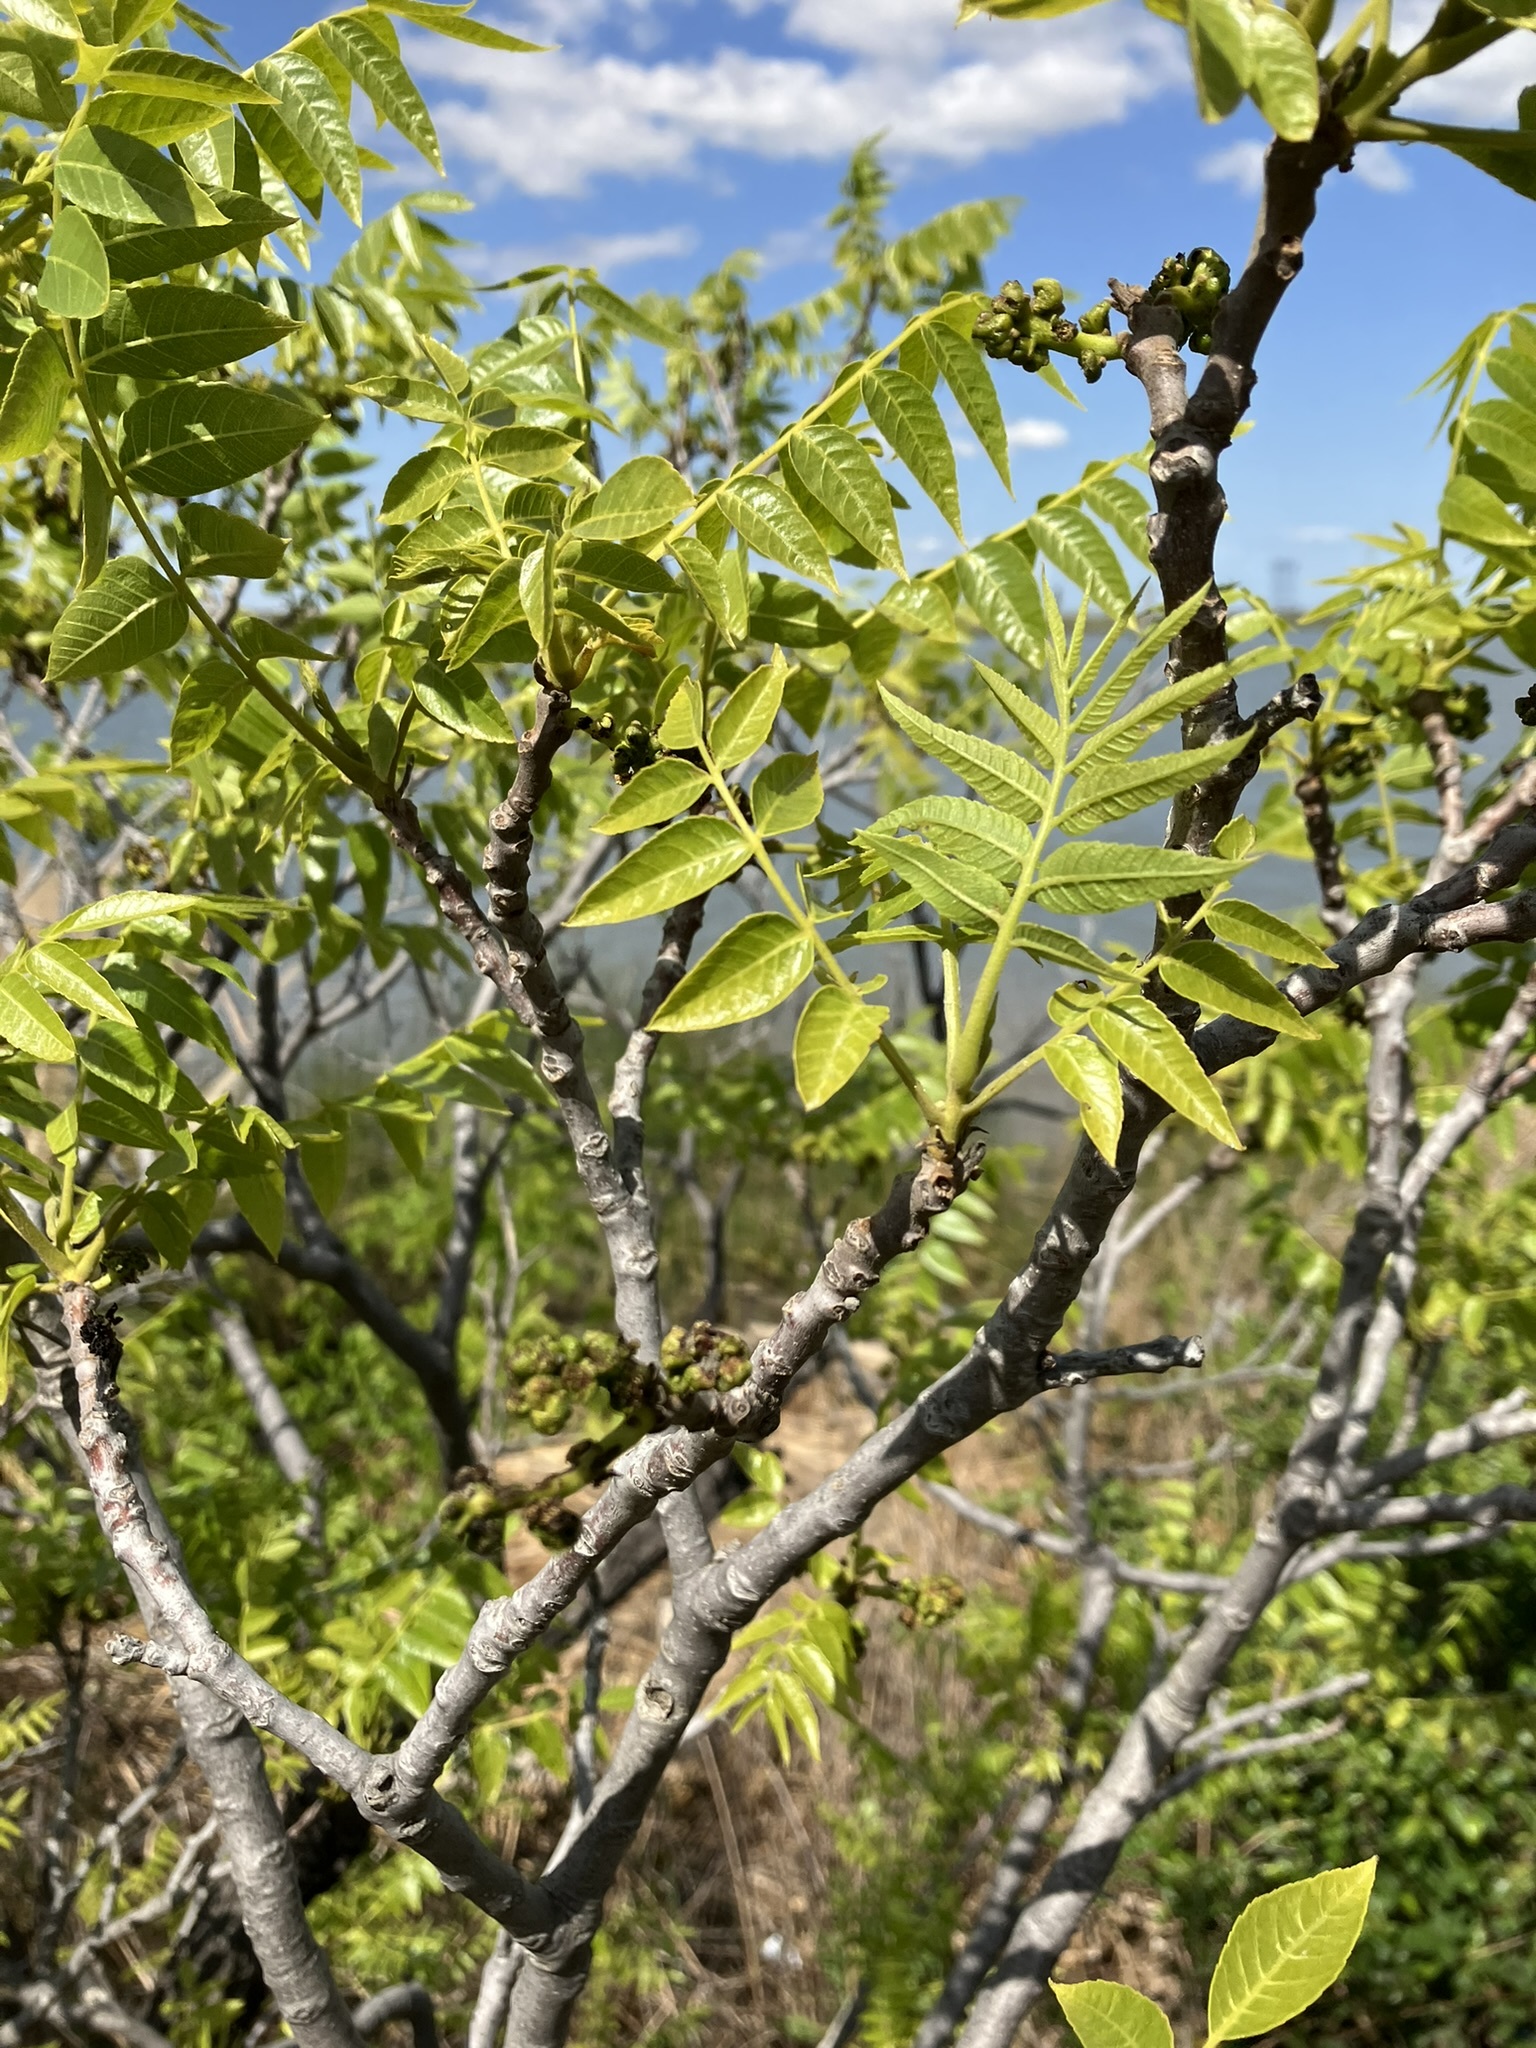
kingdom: Plantae
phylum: Tracheophyta
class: Magnoliopsida
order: Fagales
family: Juglandaceae
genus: Juglans
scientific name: Juglans hindsii
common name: Northern california black walnut
